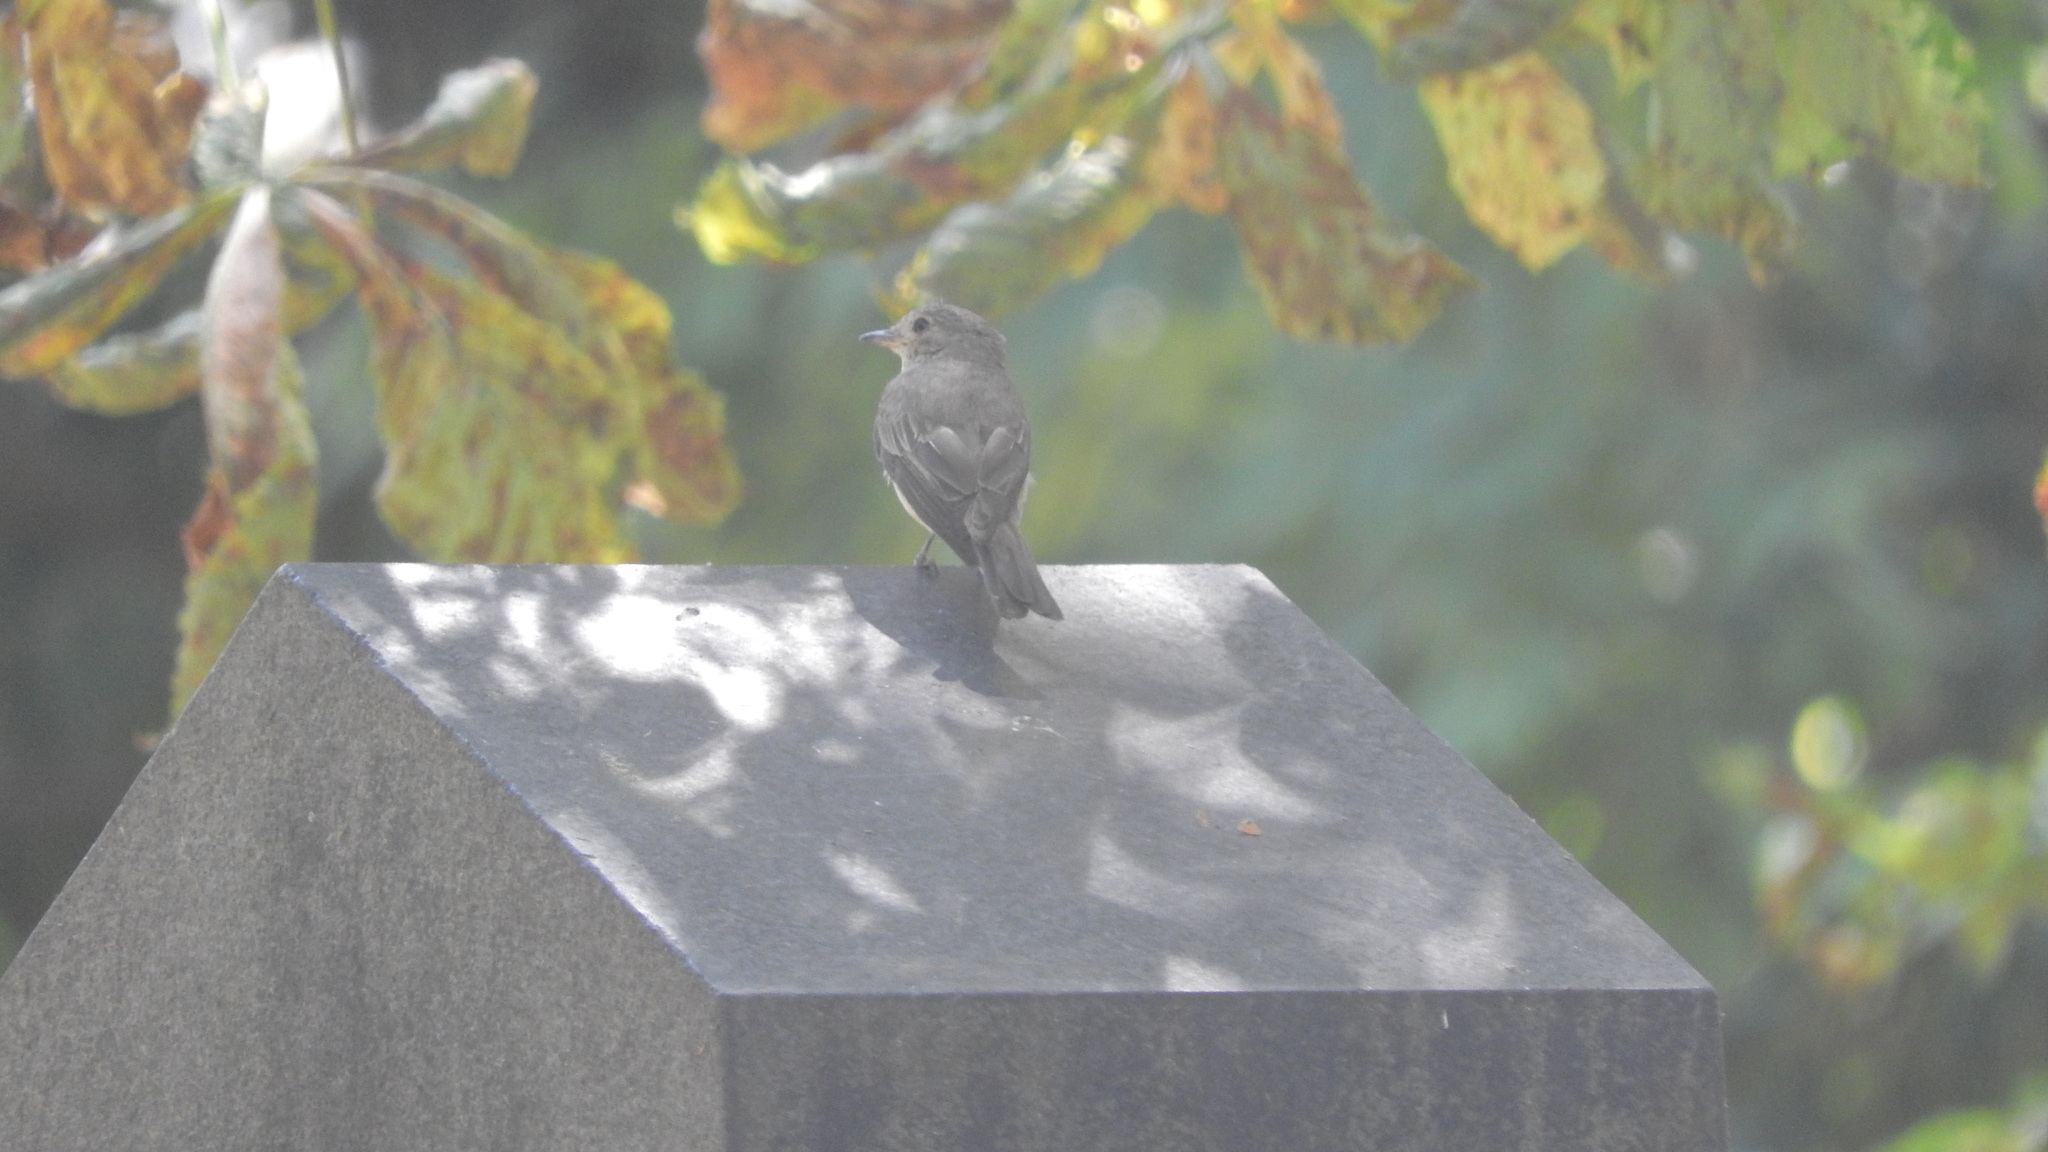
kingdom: Animalia
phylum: Chordata
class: Aves
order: Passeriformes
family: Muscicapidae
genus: Muscicapa
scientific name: Muscicapa striata
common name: Spotted flycatcher
